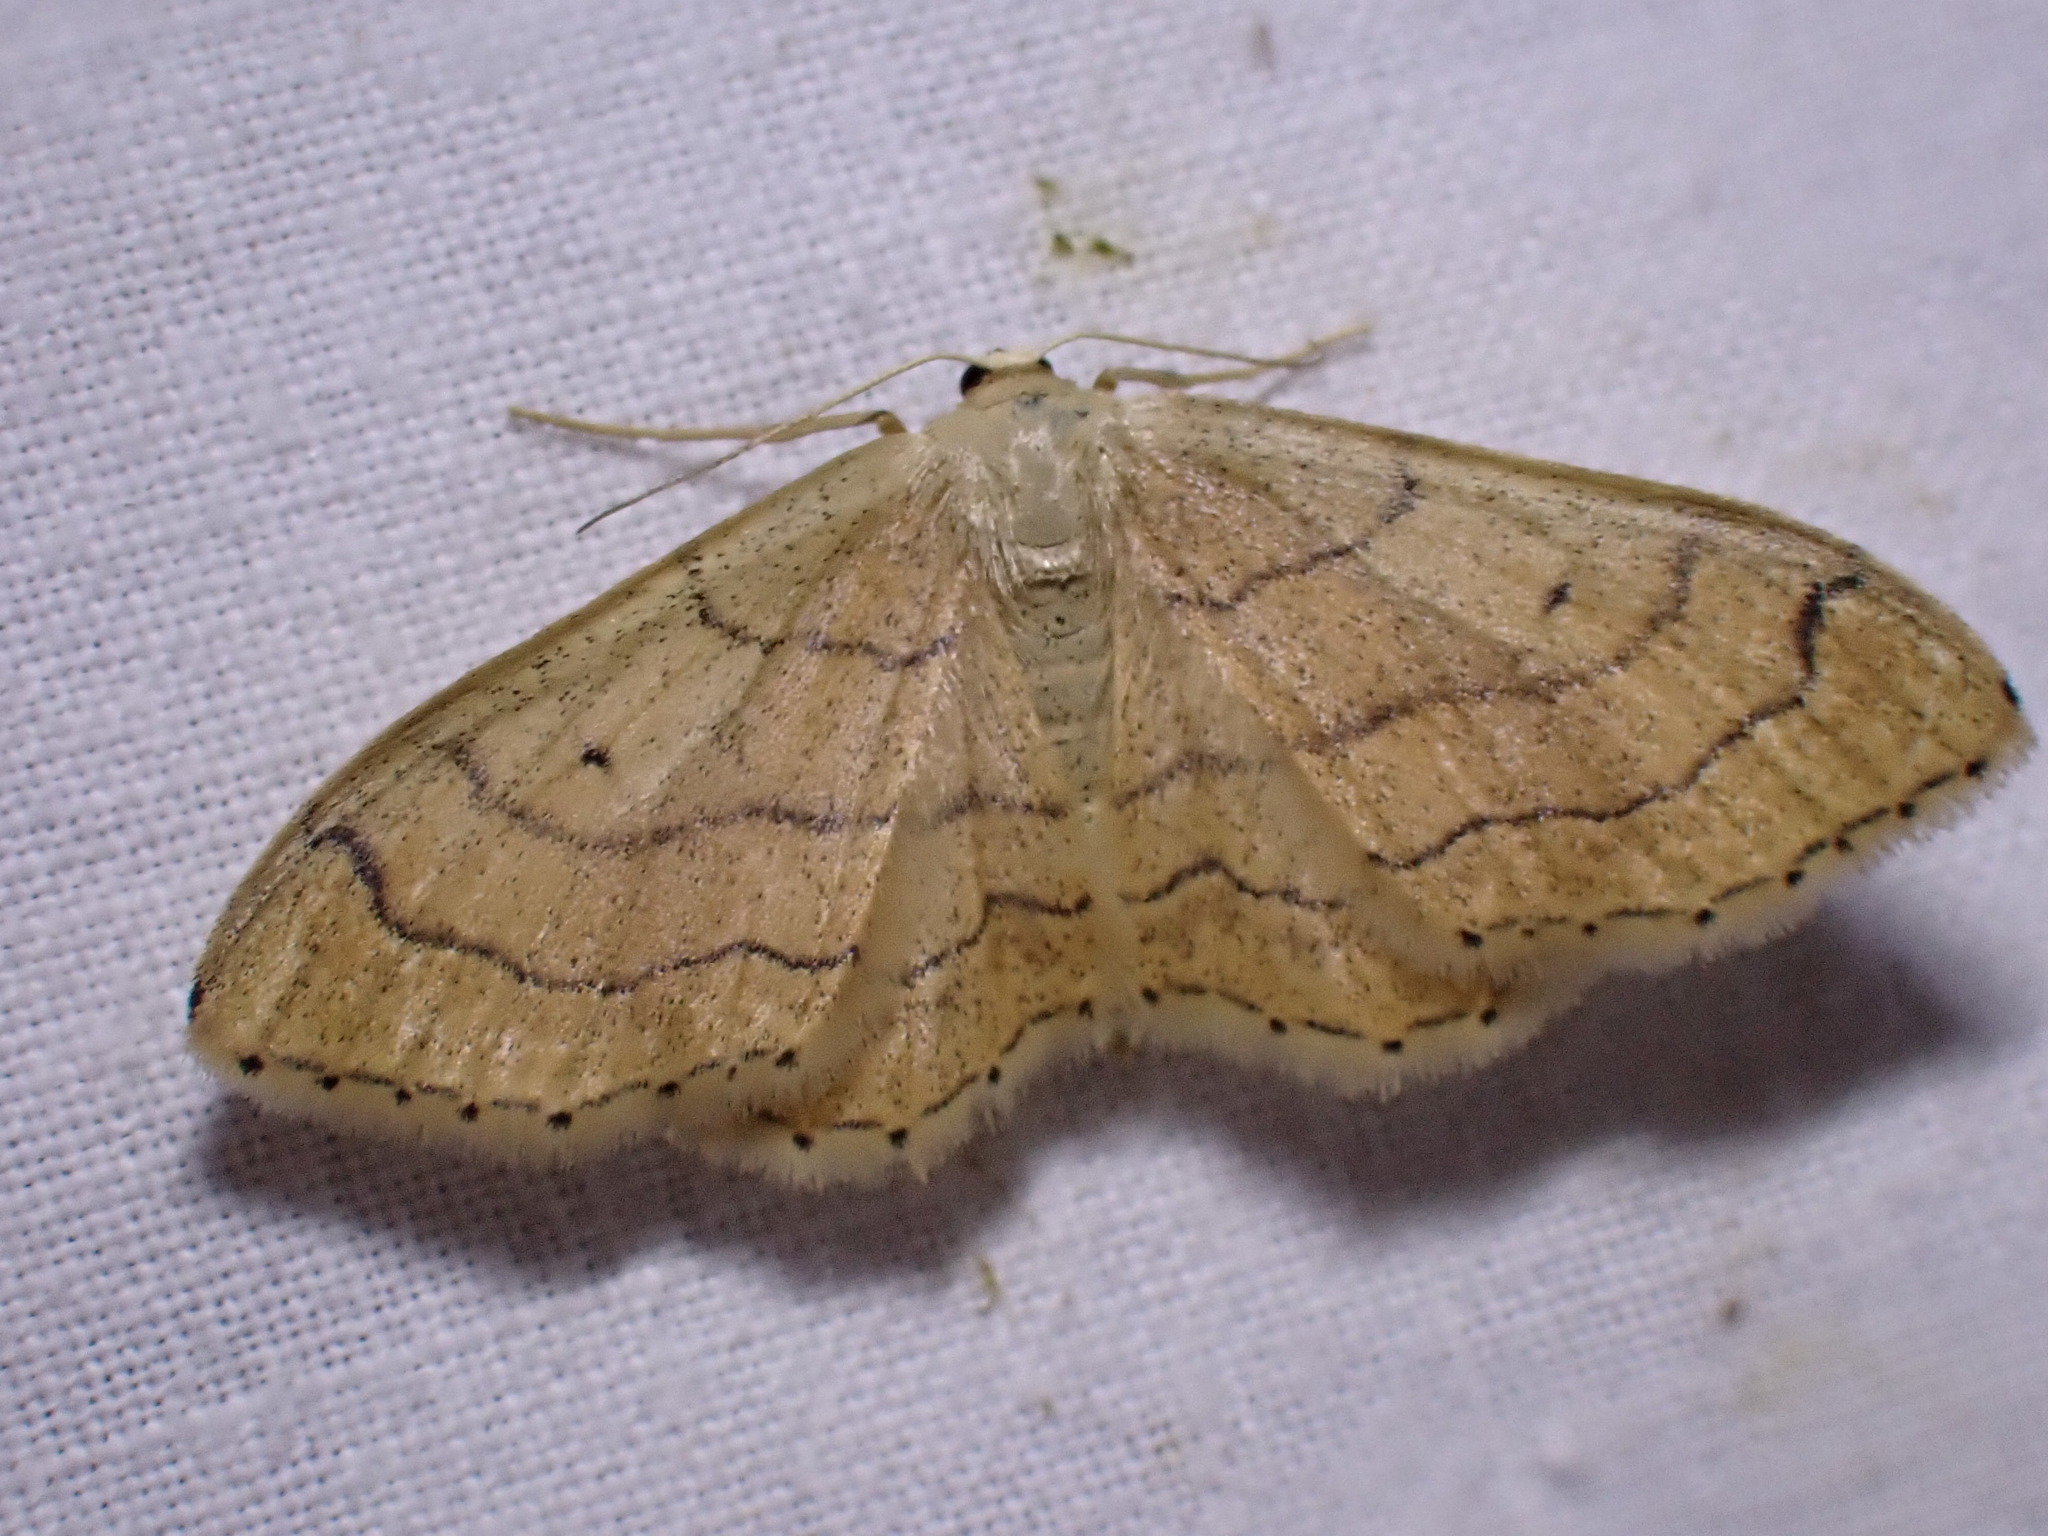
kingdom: Animalia
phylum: Arthropoda
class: Insecta
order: Lepidoptera
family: Geometridae
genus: Idaea
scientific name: Idaea aversata
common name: Riband wave
